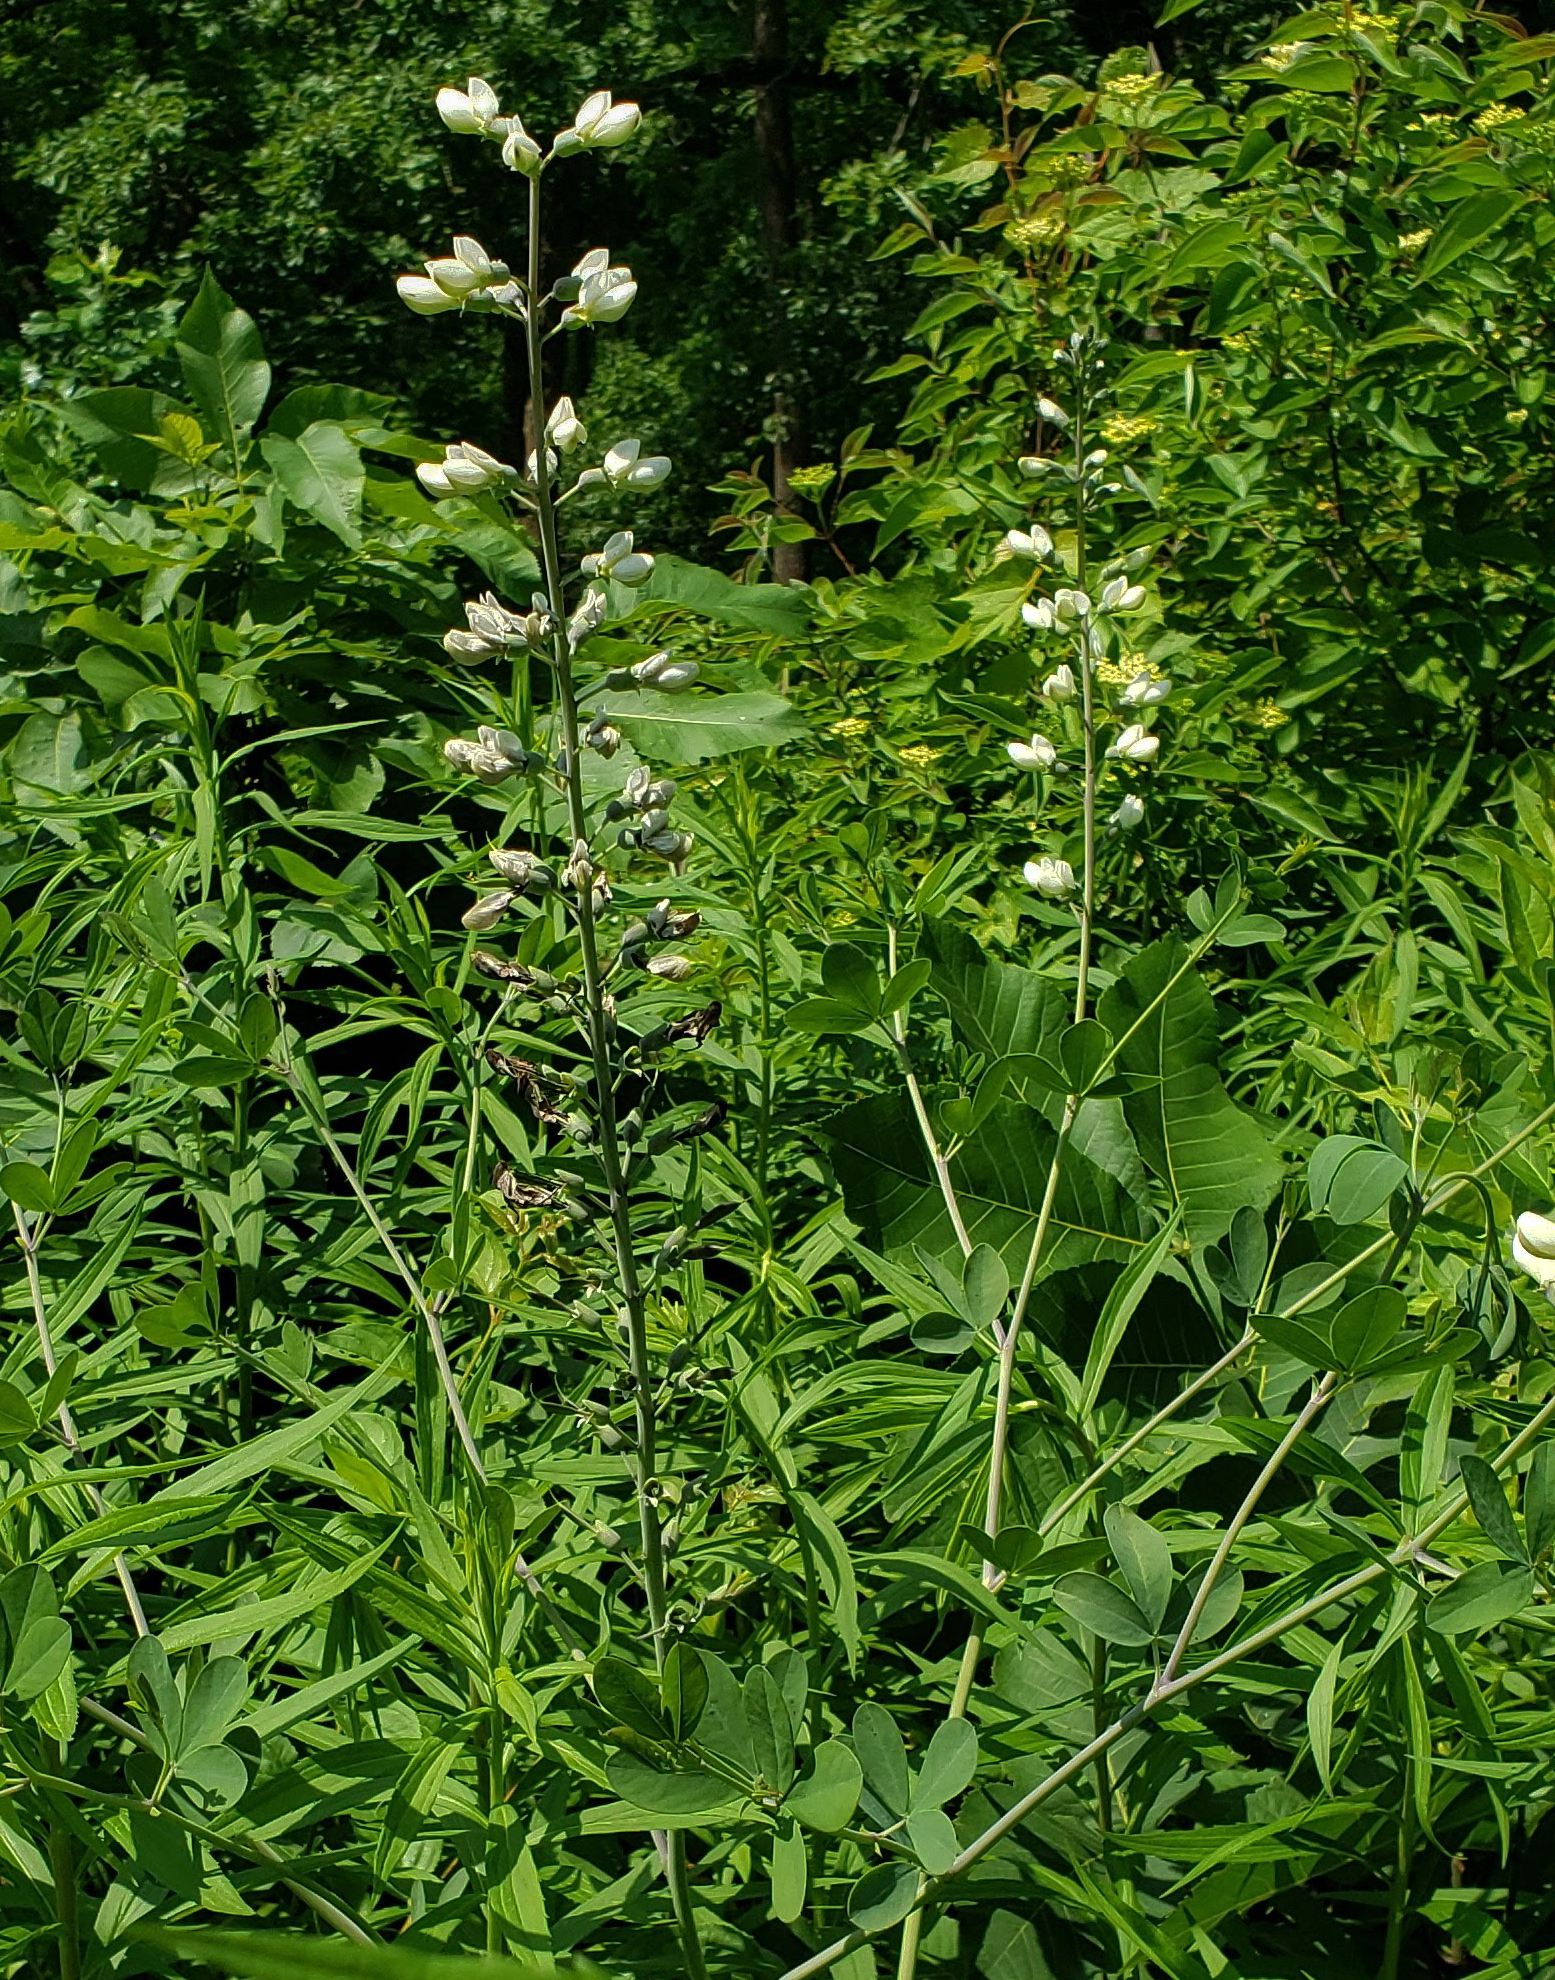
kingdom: Plantae
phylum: Tracheophyta
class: Magnoliopsida
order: Fabales
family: Fabaceae
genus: Baptisia
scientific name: Baptisia alba
